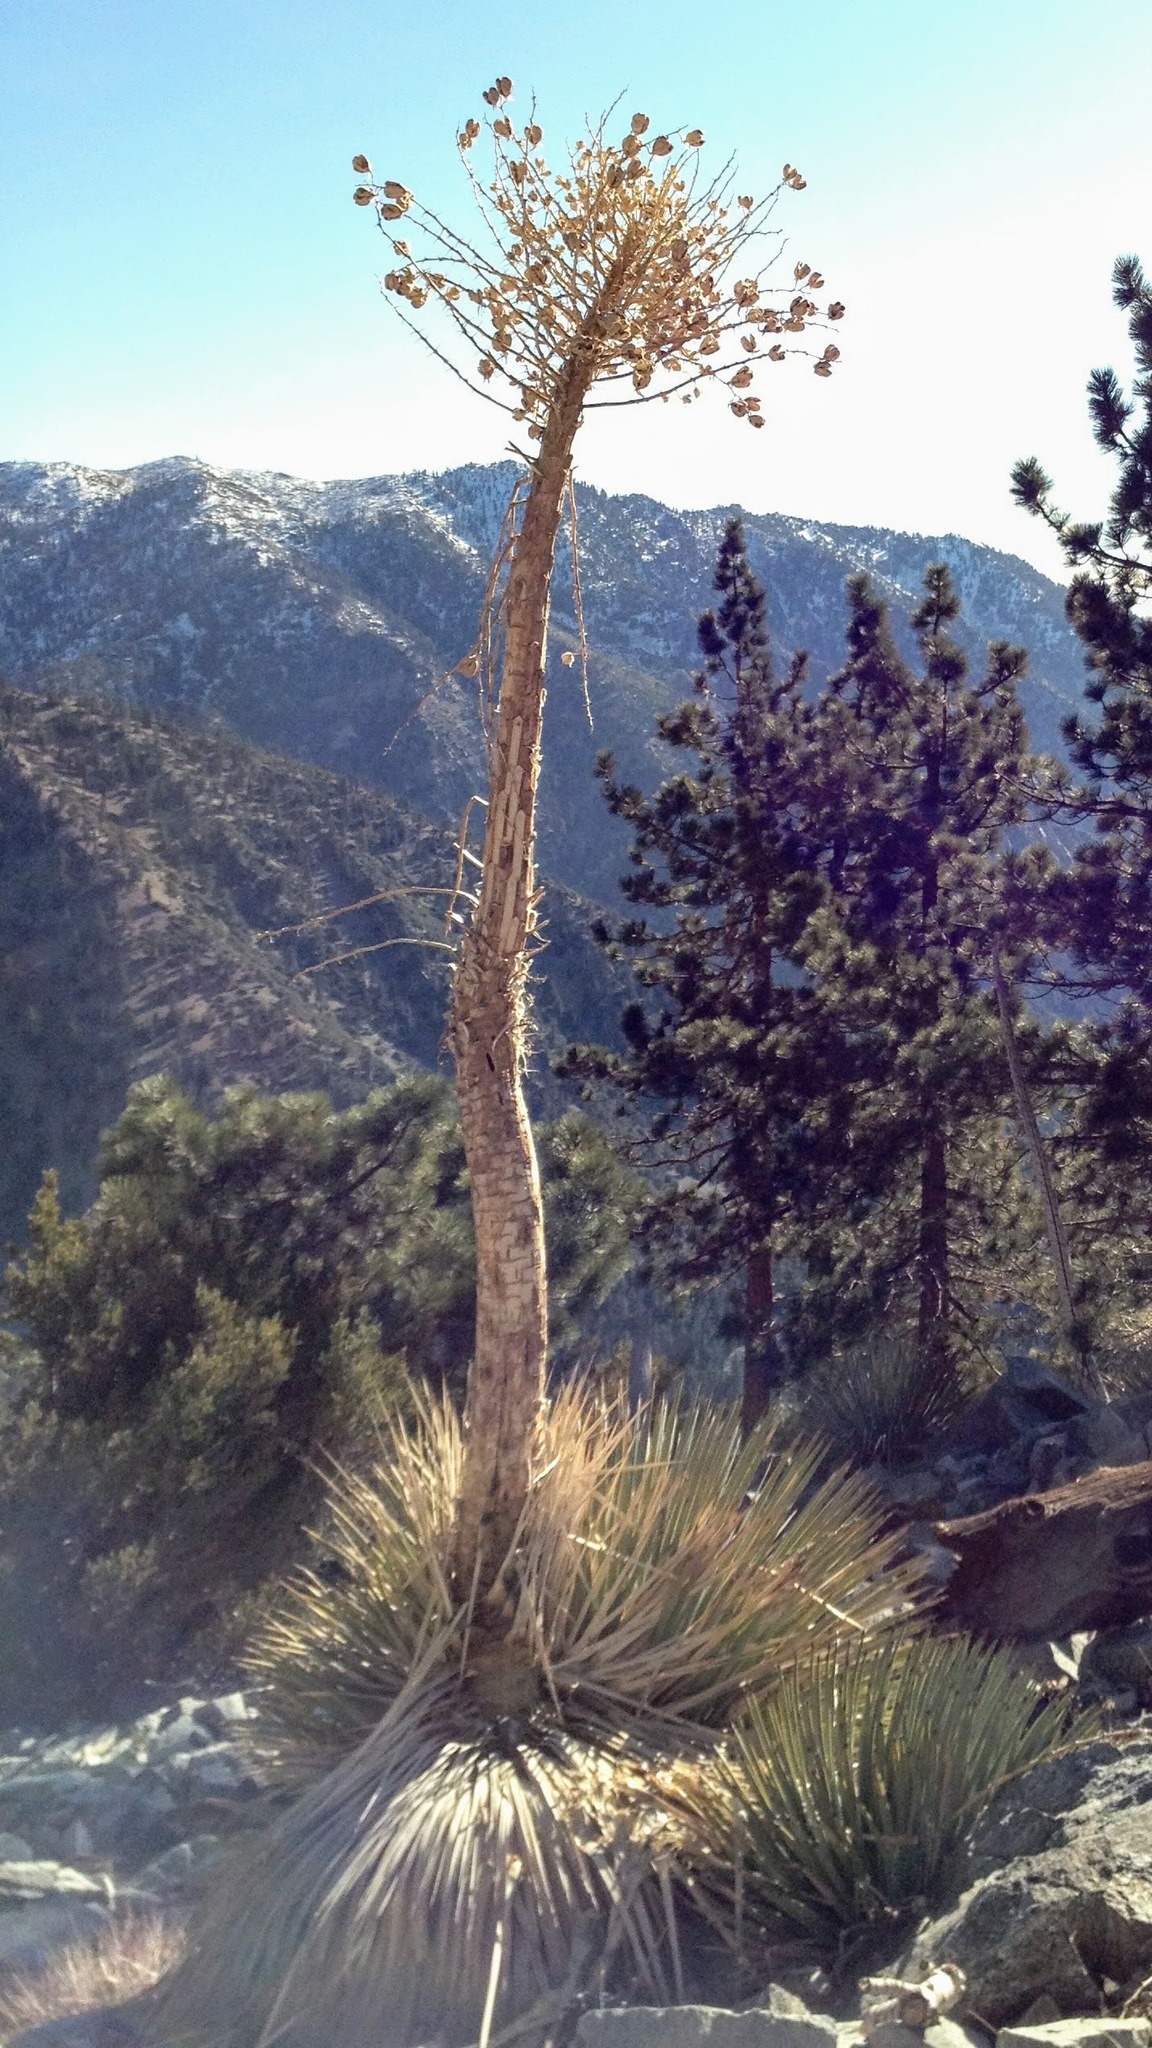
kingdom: Plantae
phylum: Tracheophyta
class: Liliopsida
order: Asparagales
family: Asparagaceae
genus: Hesperoyucca
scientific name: Hesperoyucca whipplei
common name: Our lord's-candle
